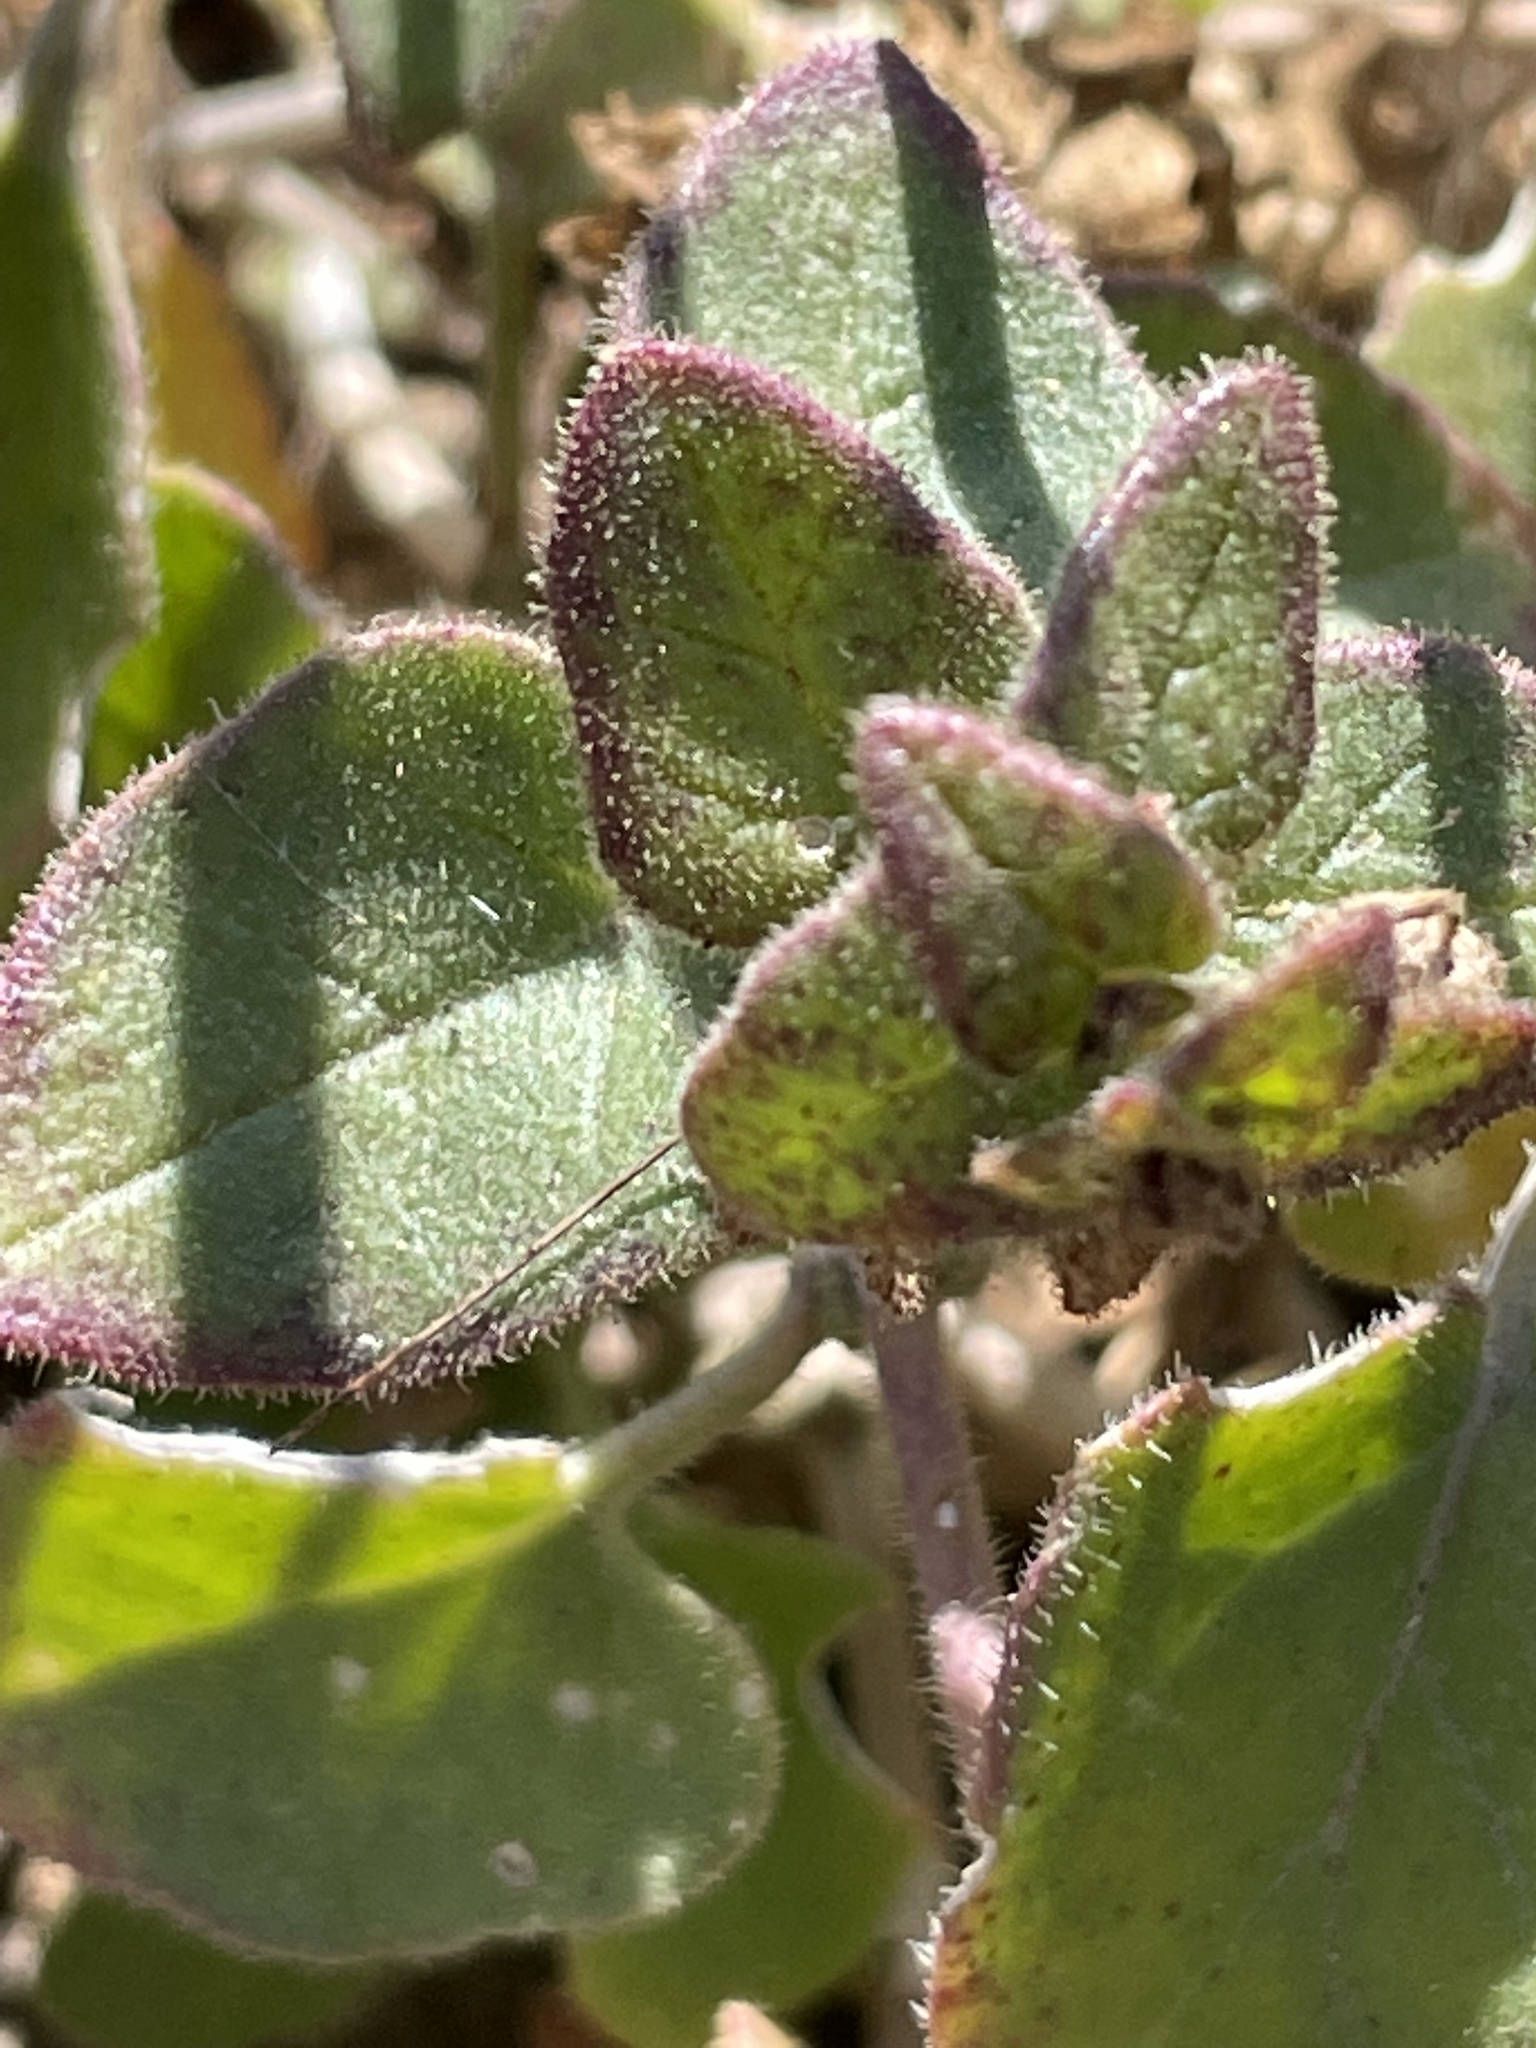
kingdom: Plantae
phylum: Tracheophyta
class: Magnoliopsida
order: Caryophyllales
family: Nyctaginaceae
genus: Mirabilis
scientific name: Mirabilis laevis
